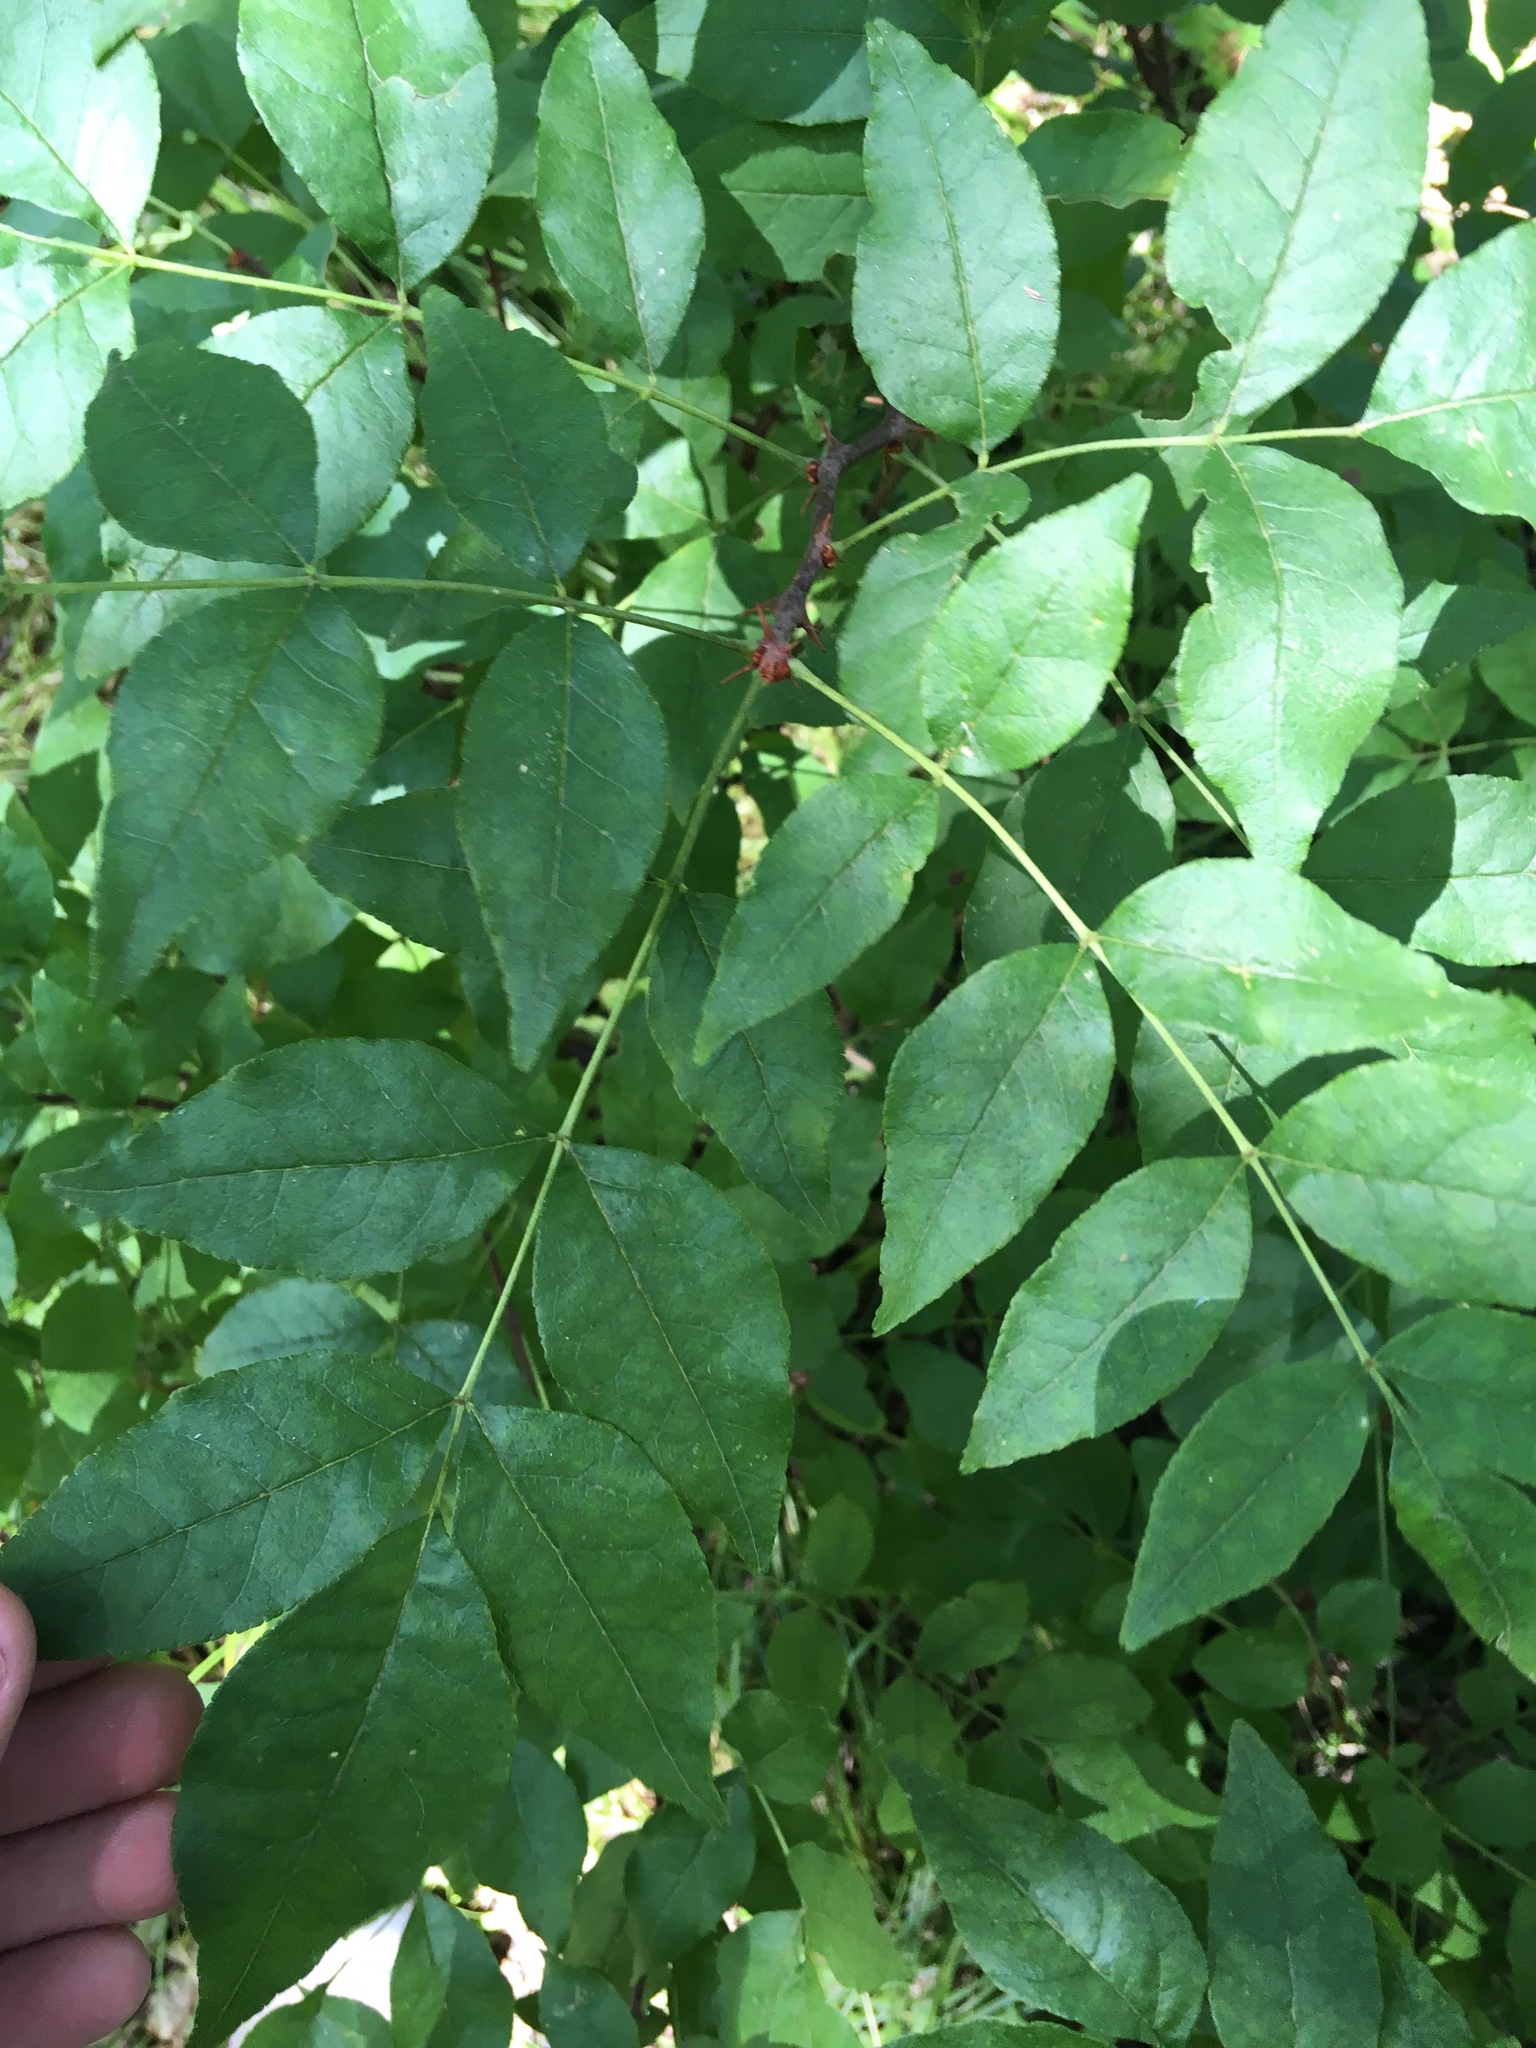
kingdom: Plantae
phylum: Tracheophyta
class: Magnoliopsida
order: Sapindales
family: Rutaceae
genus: Zanthoxylum
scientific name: Zanthoxylum americanum
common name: Northern prickly-ash
